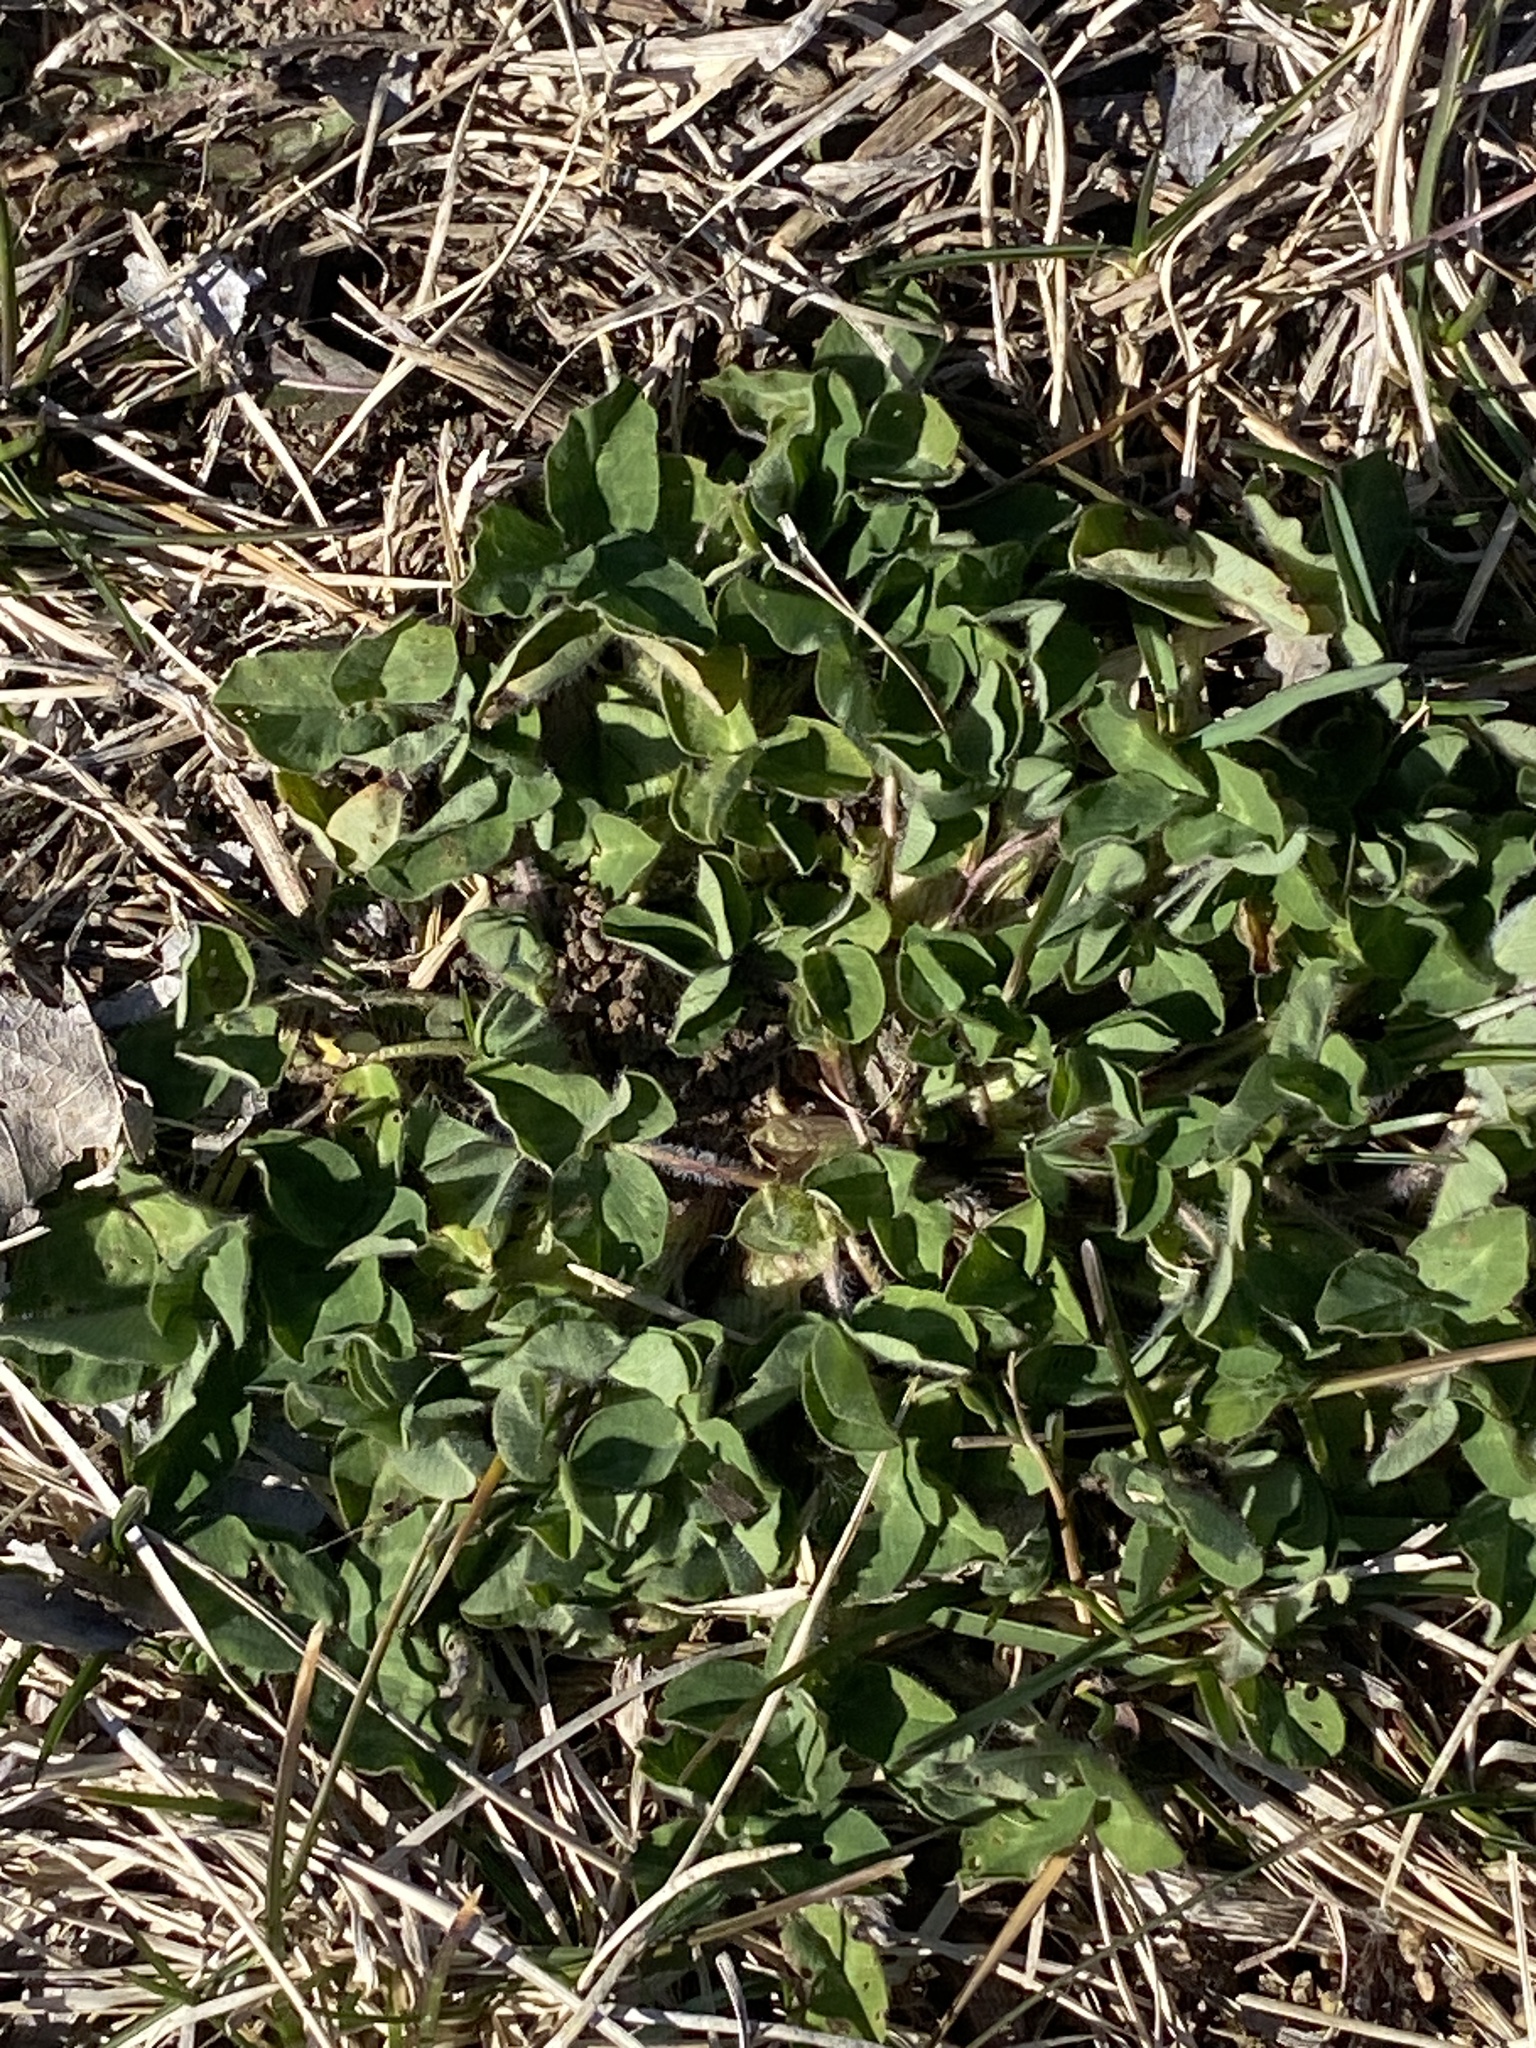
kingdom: Plantae
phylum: Tracheophyta
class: Magnoliopsida
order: Fabales
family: Fabaceae
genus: Trifolium
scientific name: Trifolium pratense
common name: Red clover
